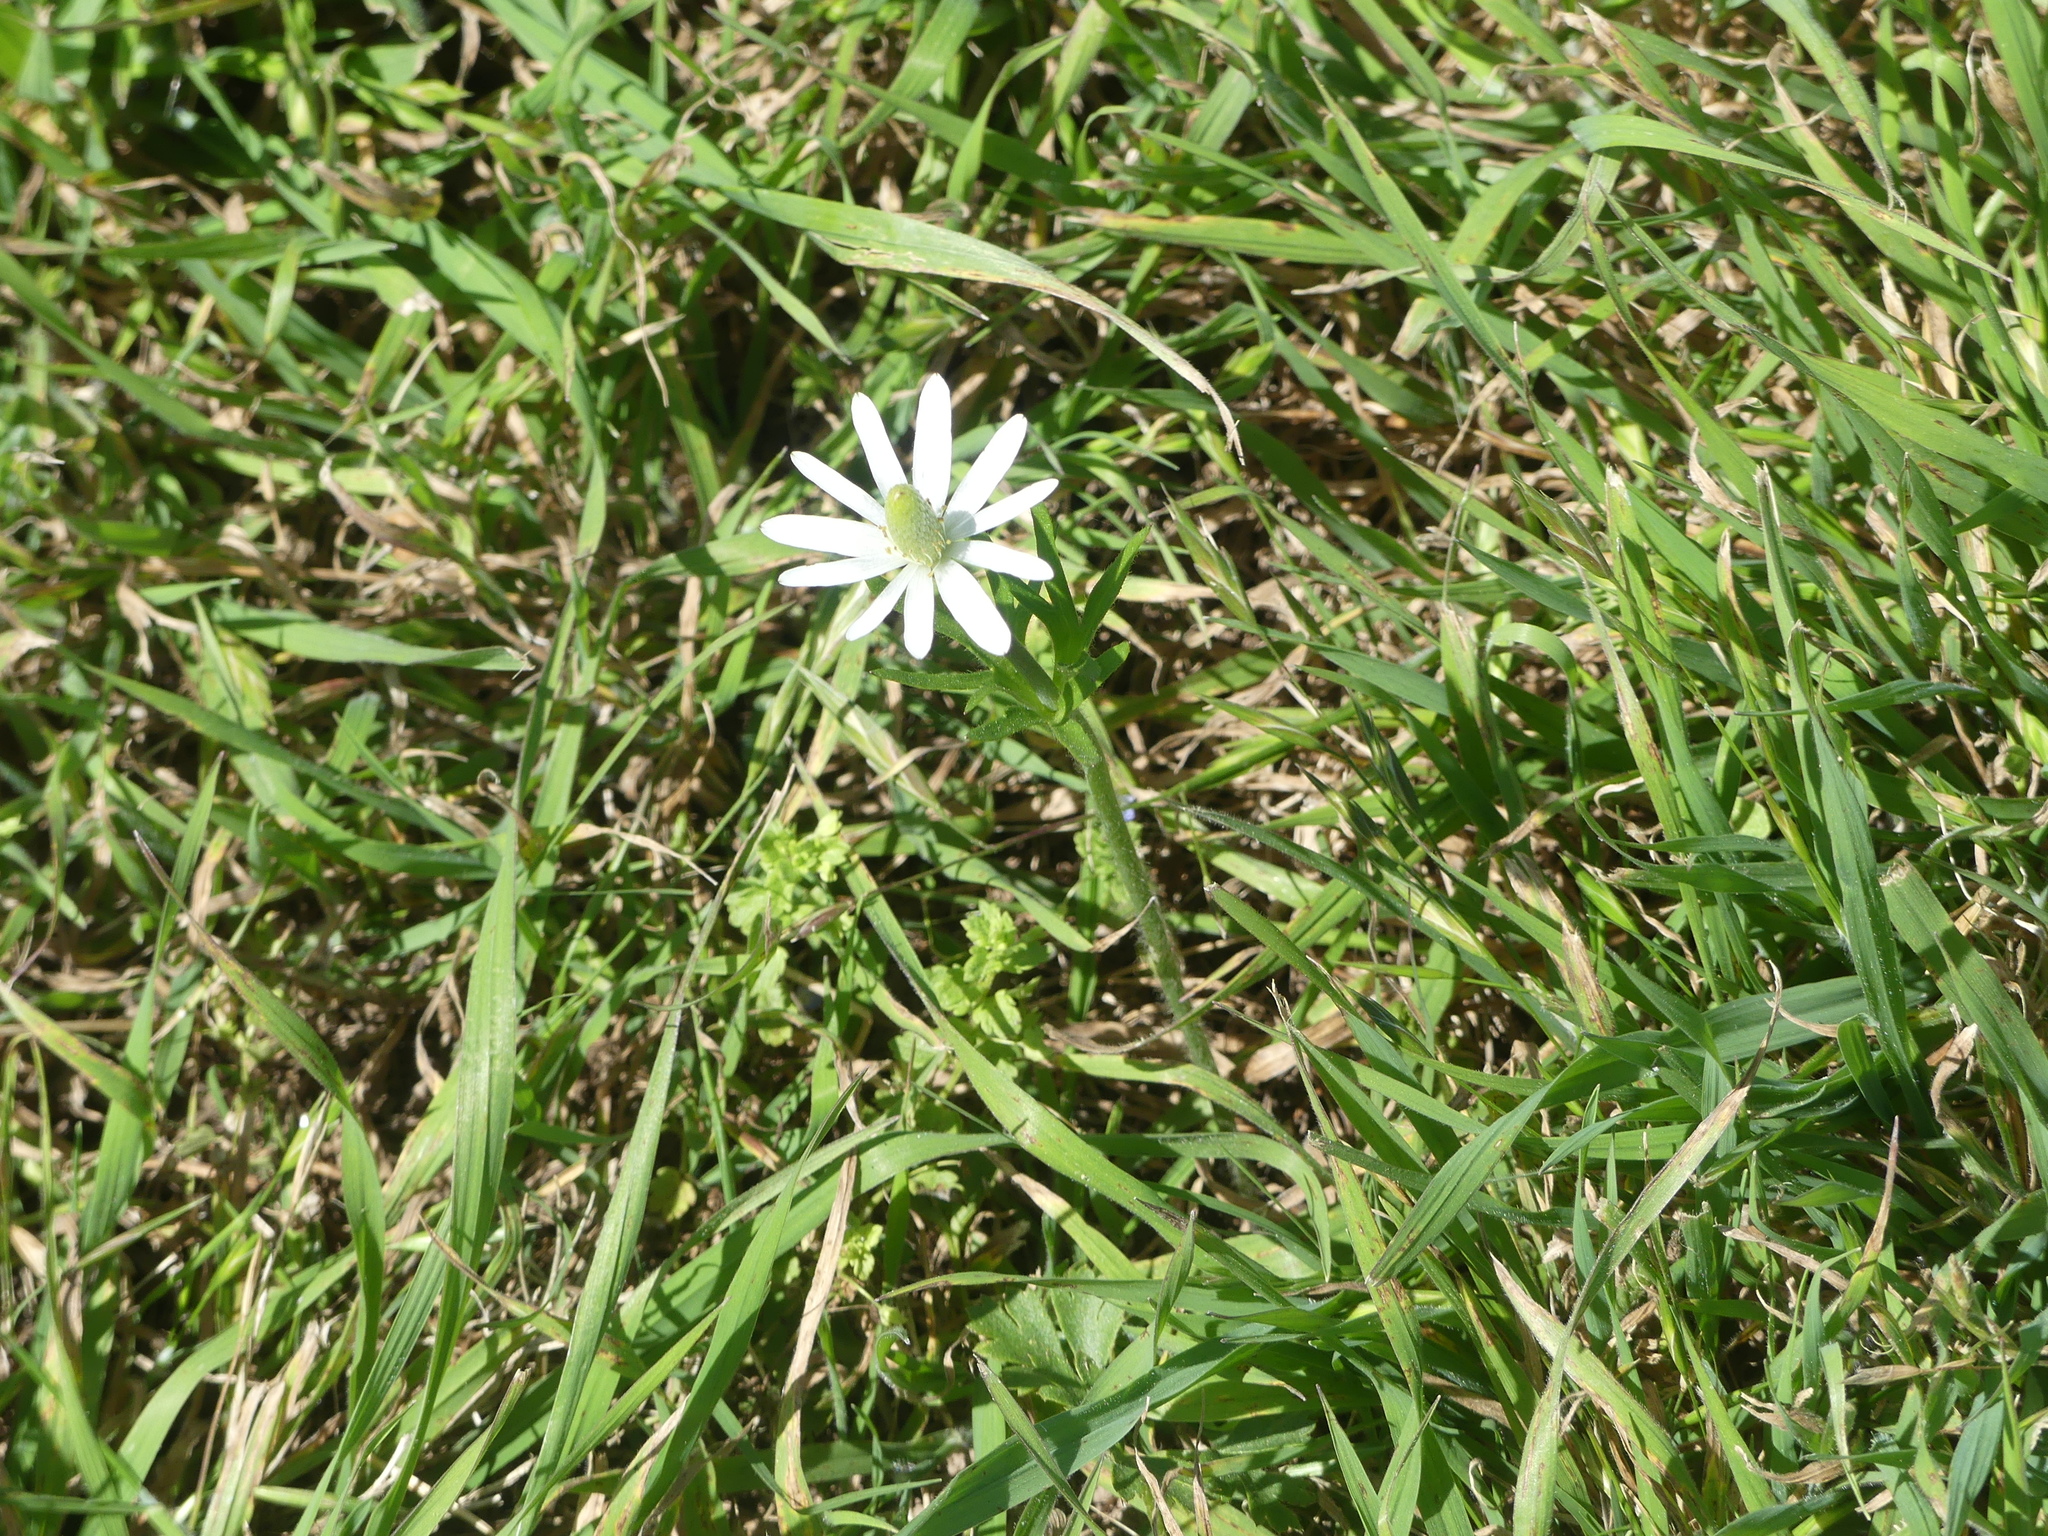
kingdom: Plantae
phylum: Tracheophyta
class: Magnoliopsida
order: Ranunculales
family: Ranunculaceae
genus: Anemone
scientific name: Anemone berlandieri
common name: Ten-petal anemone
